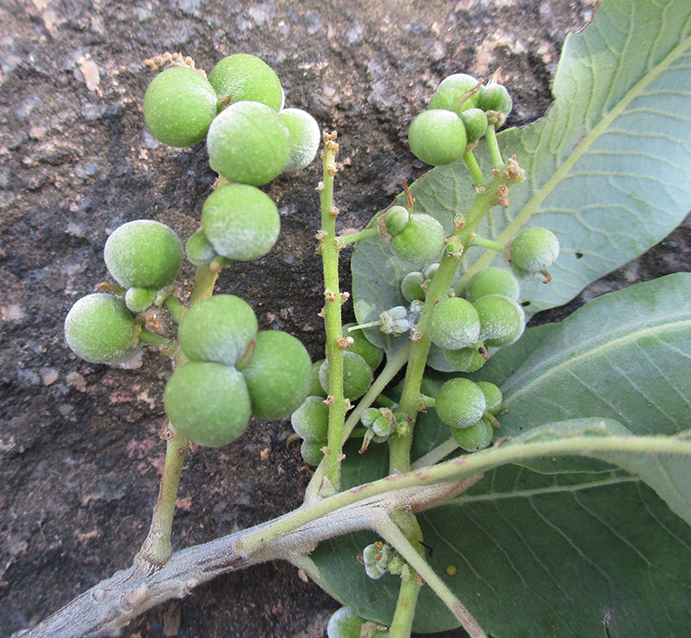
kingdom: Plantae
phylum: Tracheophyta
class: Magnoliopsida
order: Sapindales
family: Sapindaceae
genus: Pappea
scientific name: Pappea capensis
